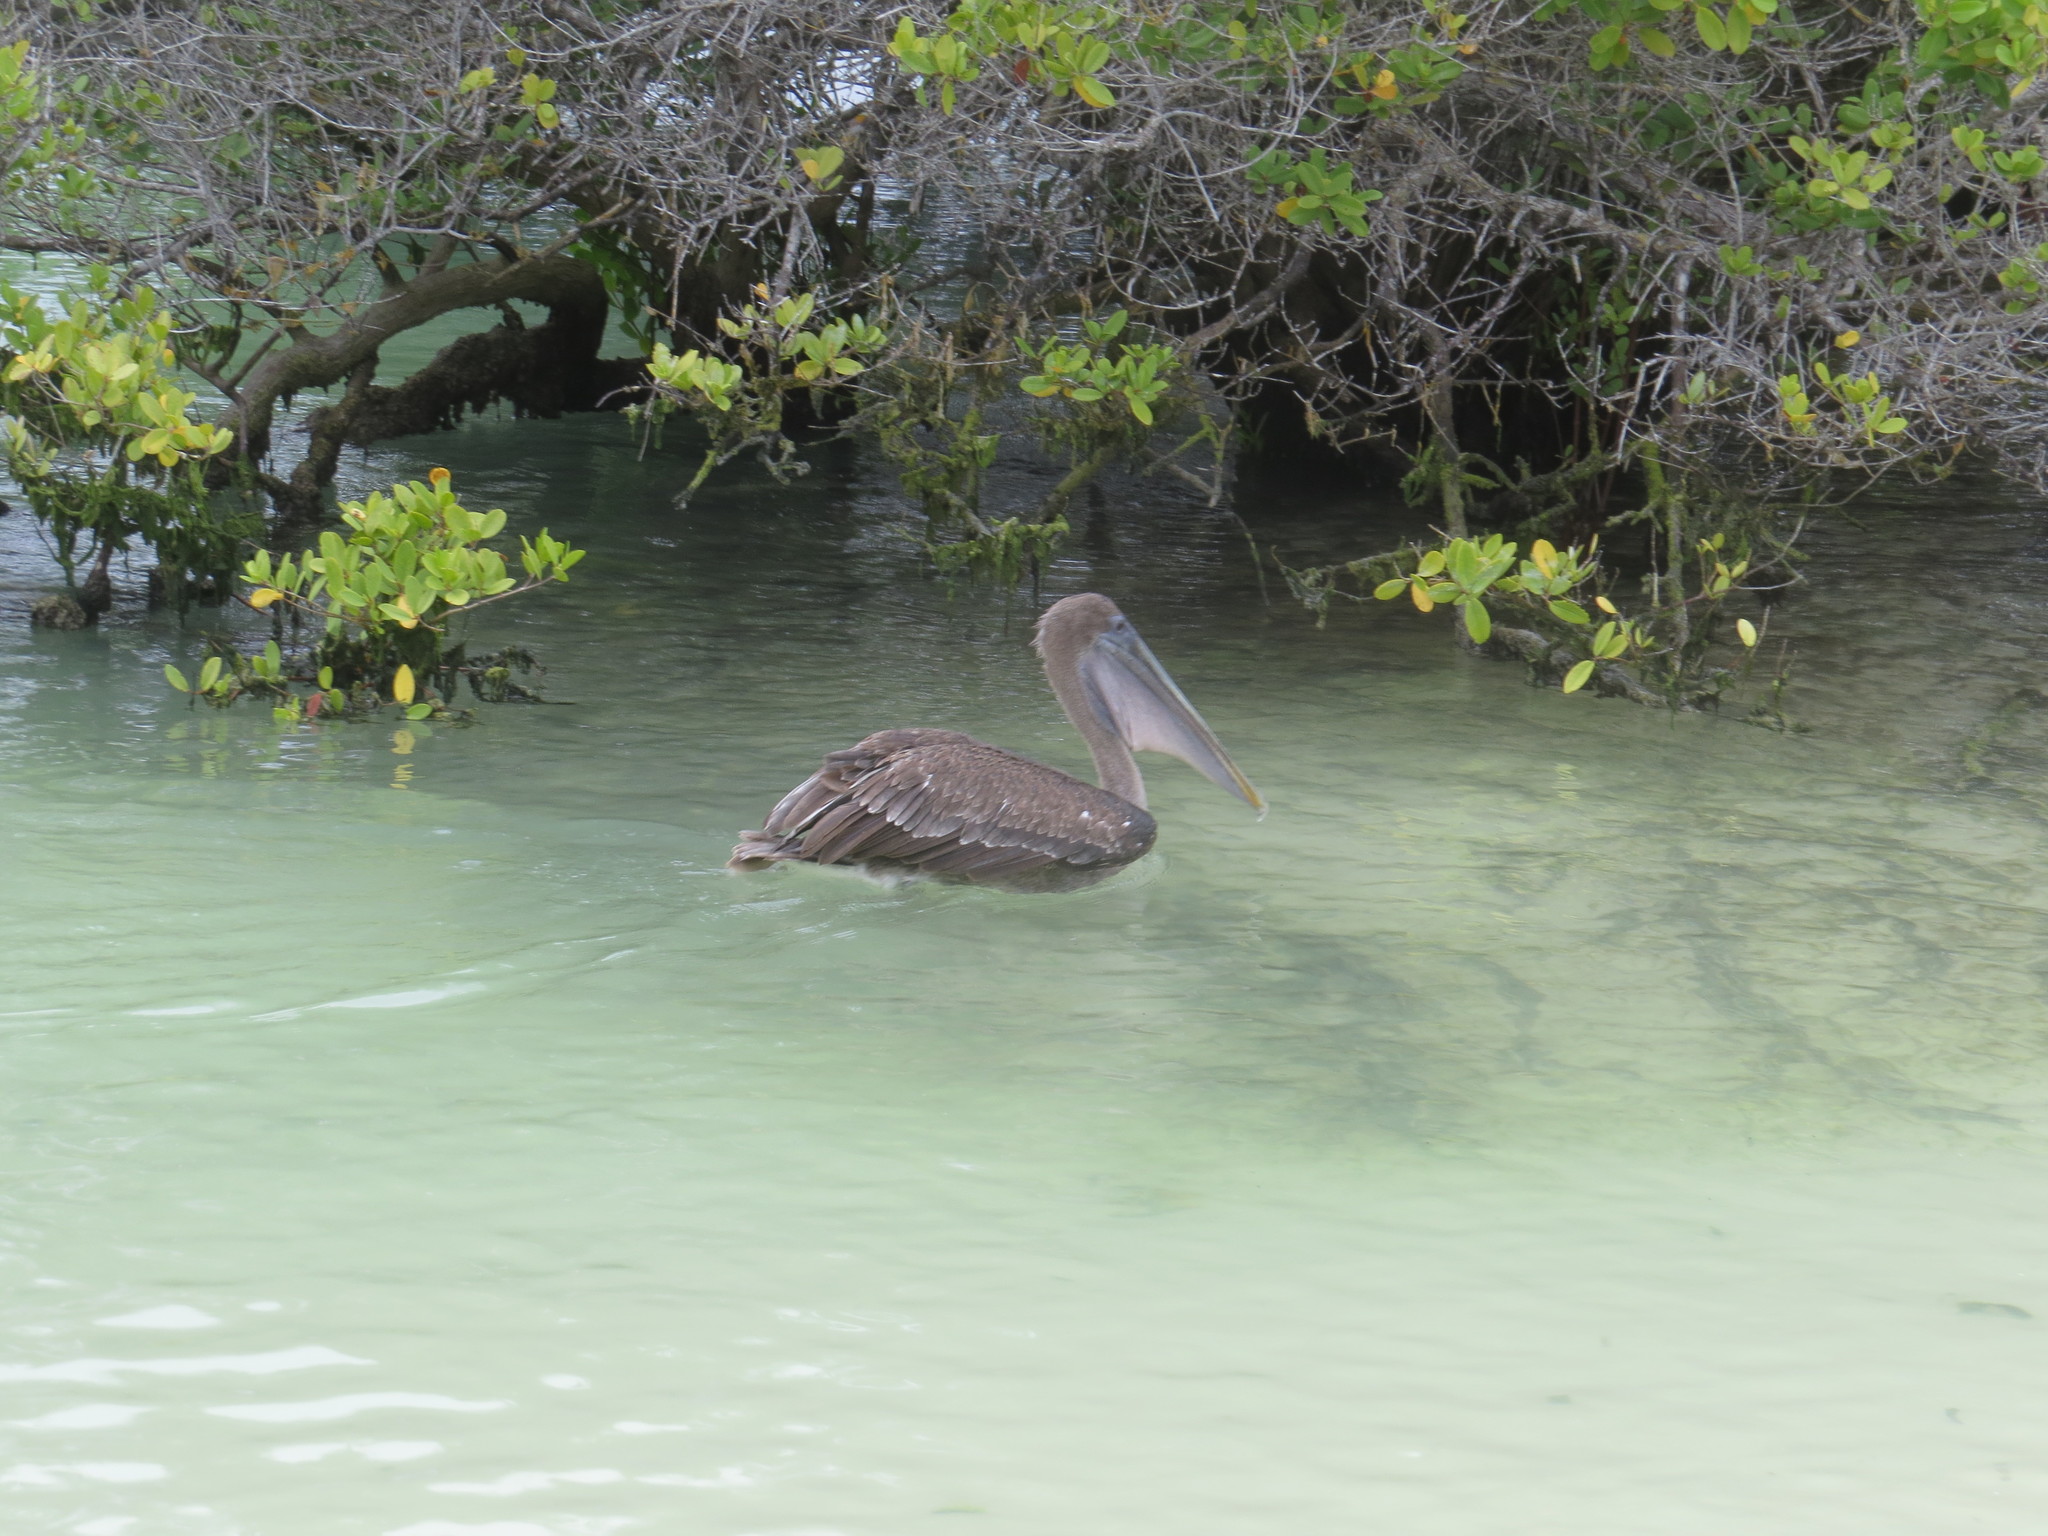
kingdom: Animalia
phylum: Chordata
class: Aves
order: Pelecaniformes
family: Pelecanidae
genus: Pelecanus
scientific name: Pelecanus occidentalis
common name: Brown pelican
